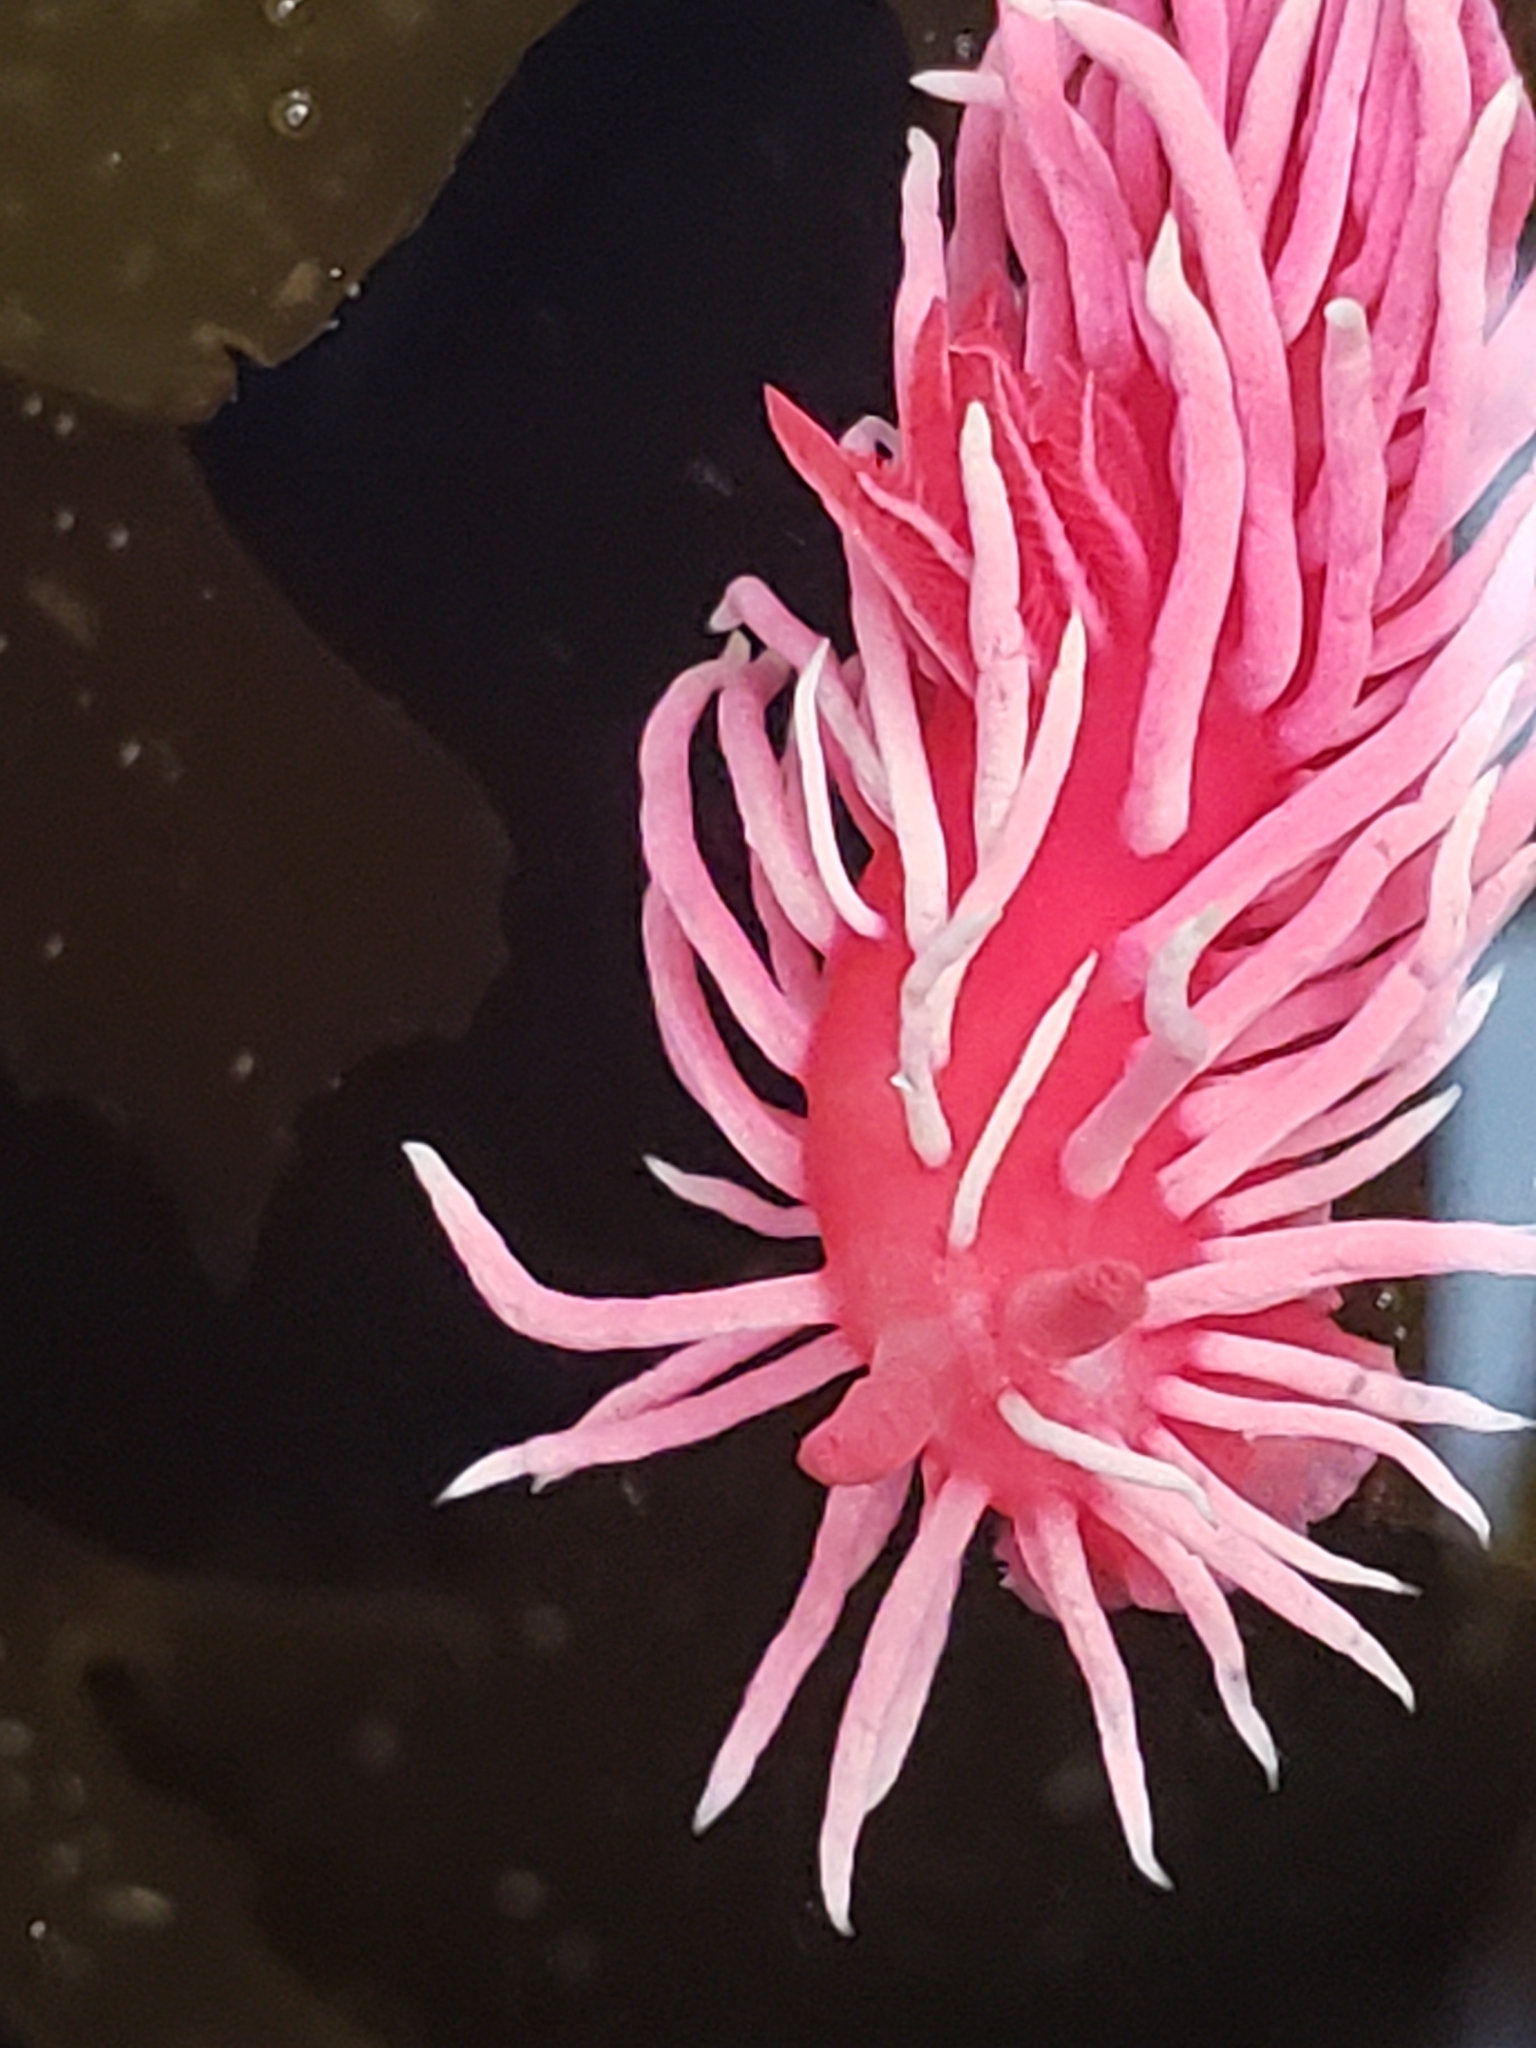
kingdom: Animalia
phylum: Mollusca
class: Gastropoda
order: Nudibranchia
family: Goniodorididae
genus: Okenia
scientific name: Okenia
